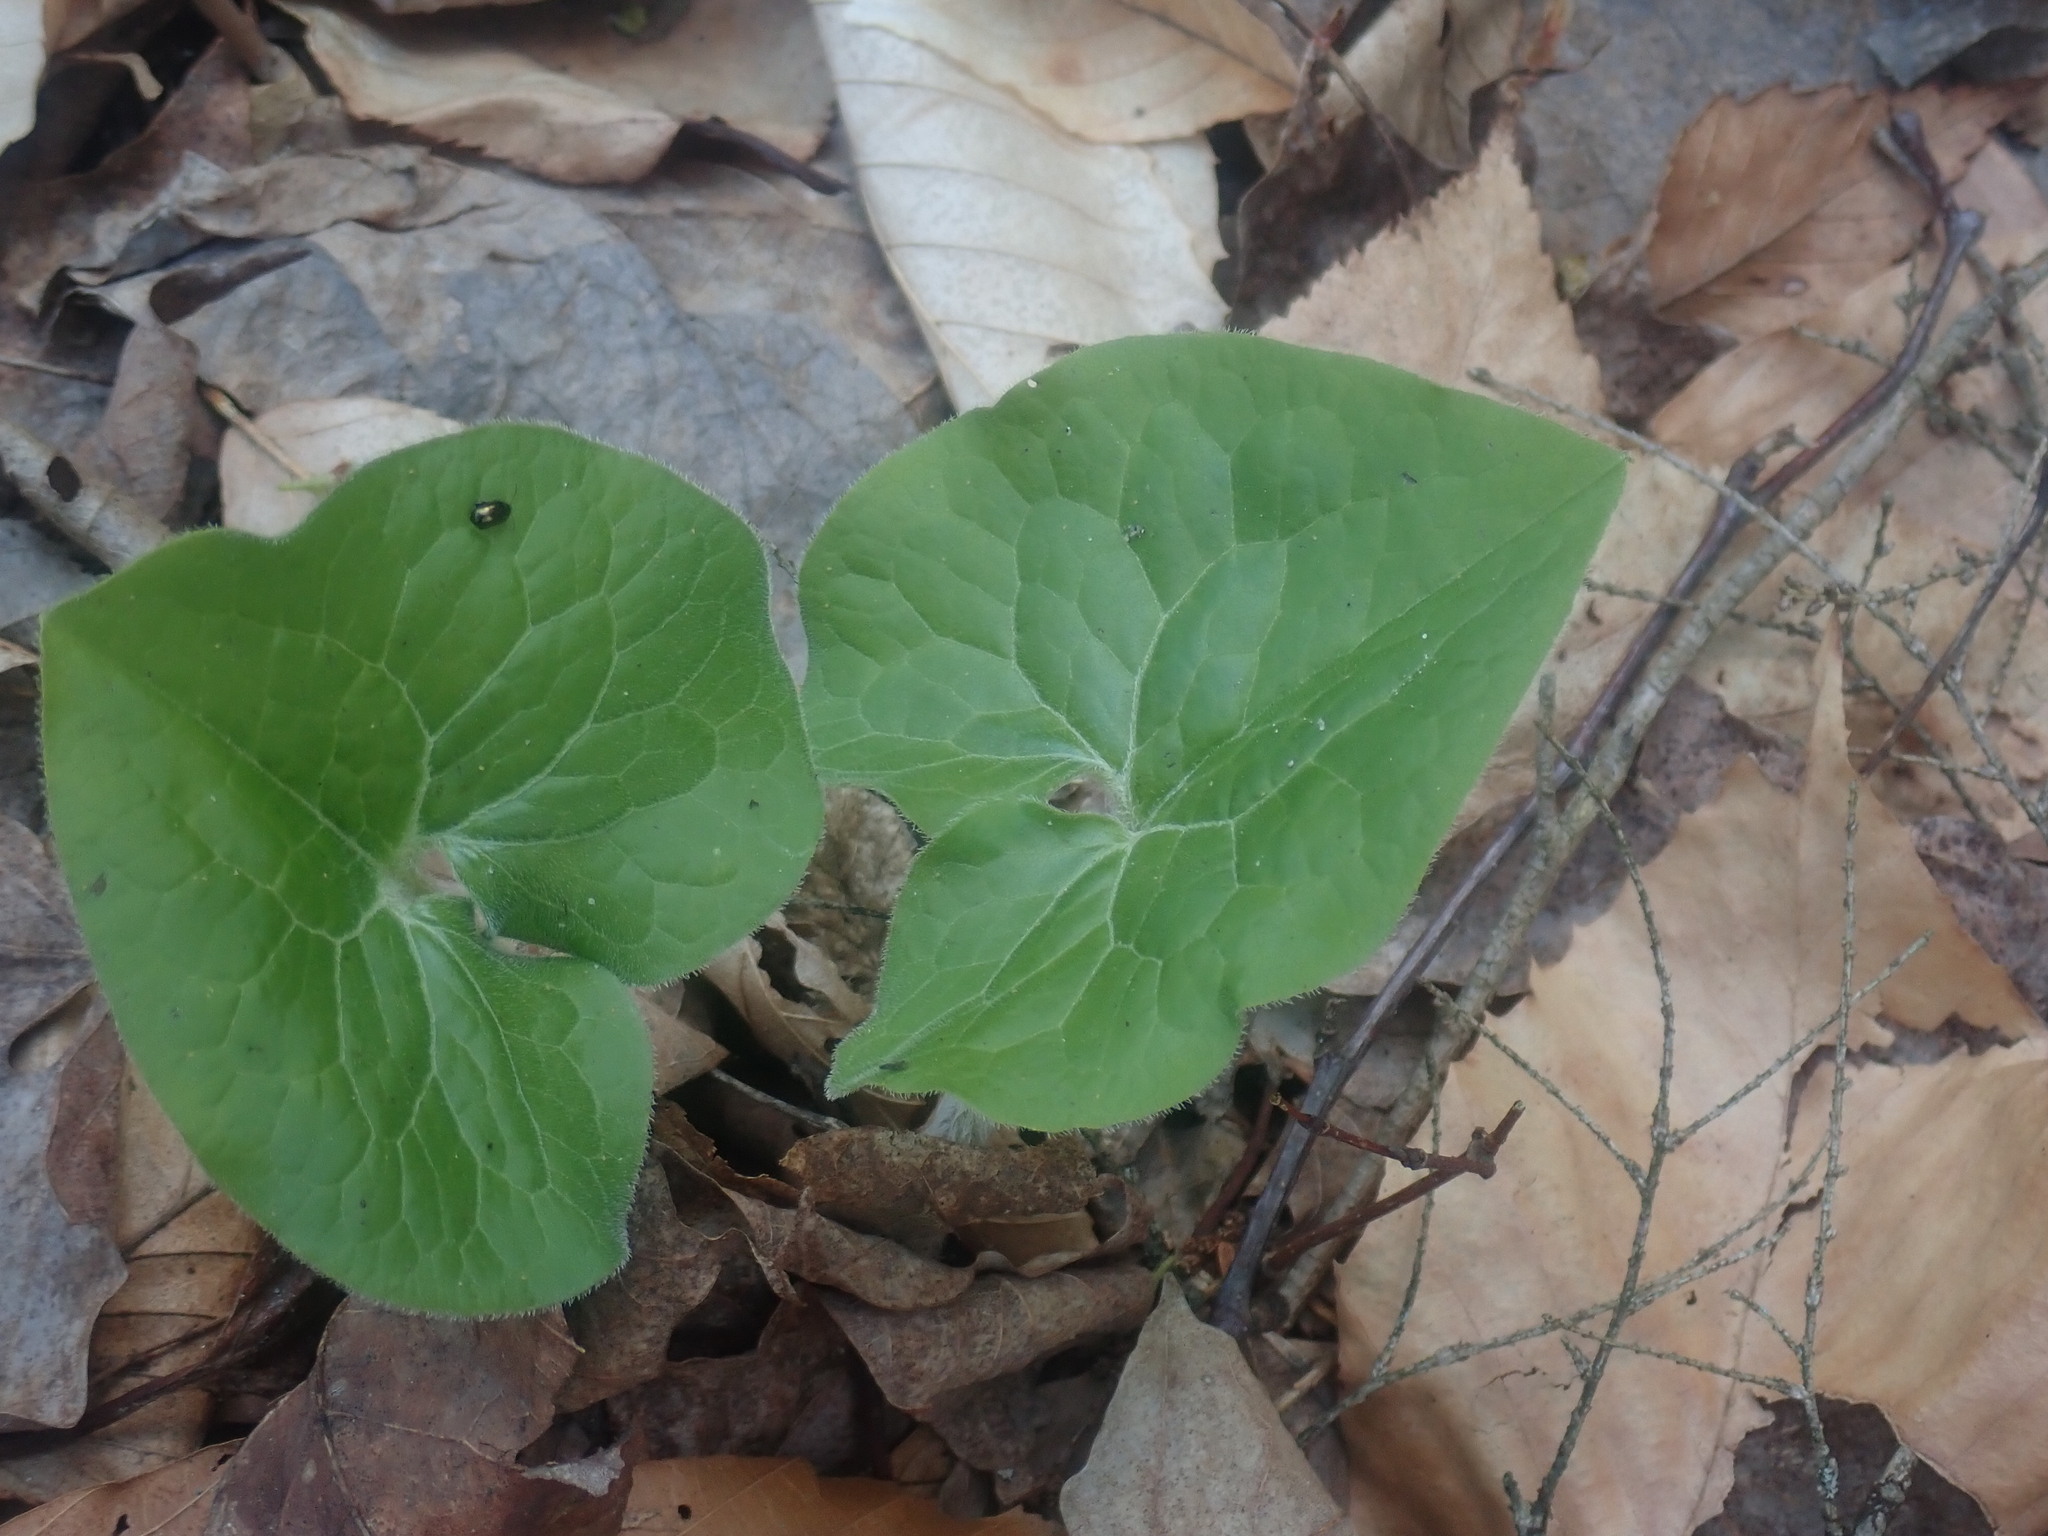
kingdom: Plantae
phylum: Tracheophyta
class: Magnoliopsida
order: Piperales
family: Aristolochiaceae
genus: Asarum
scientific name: Asarum canadense
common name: Wild ginger
